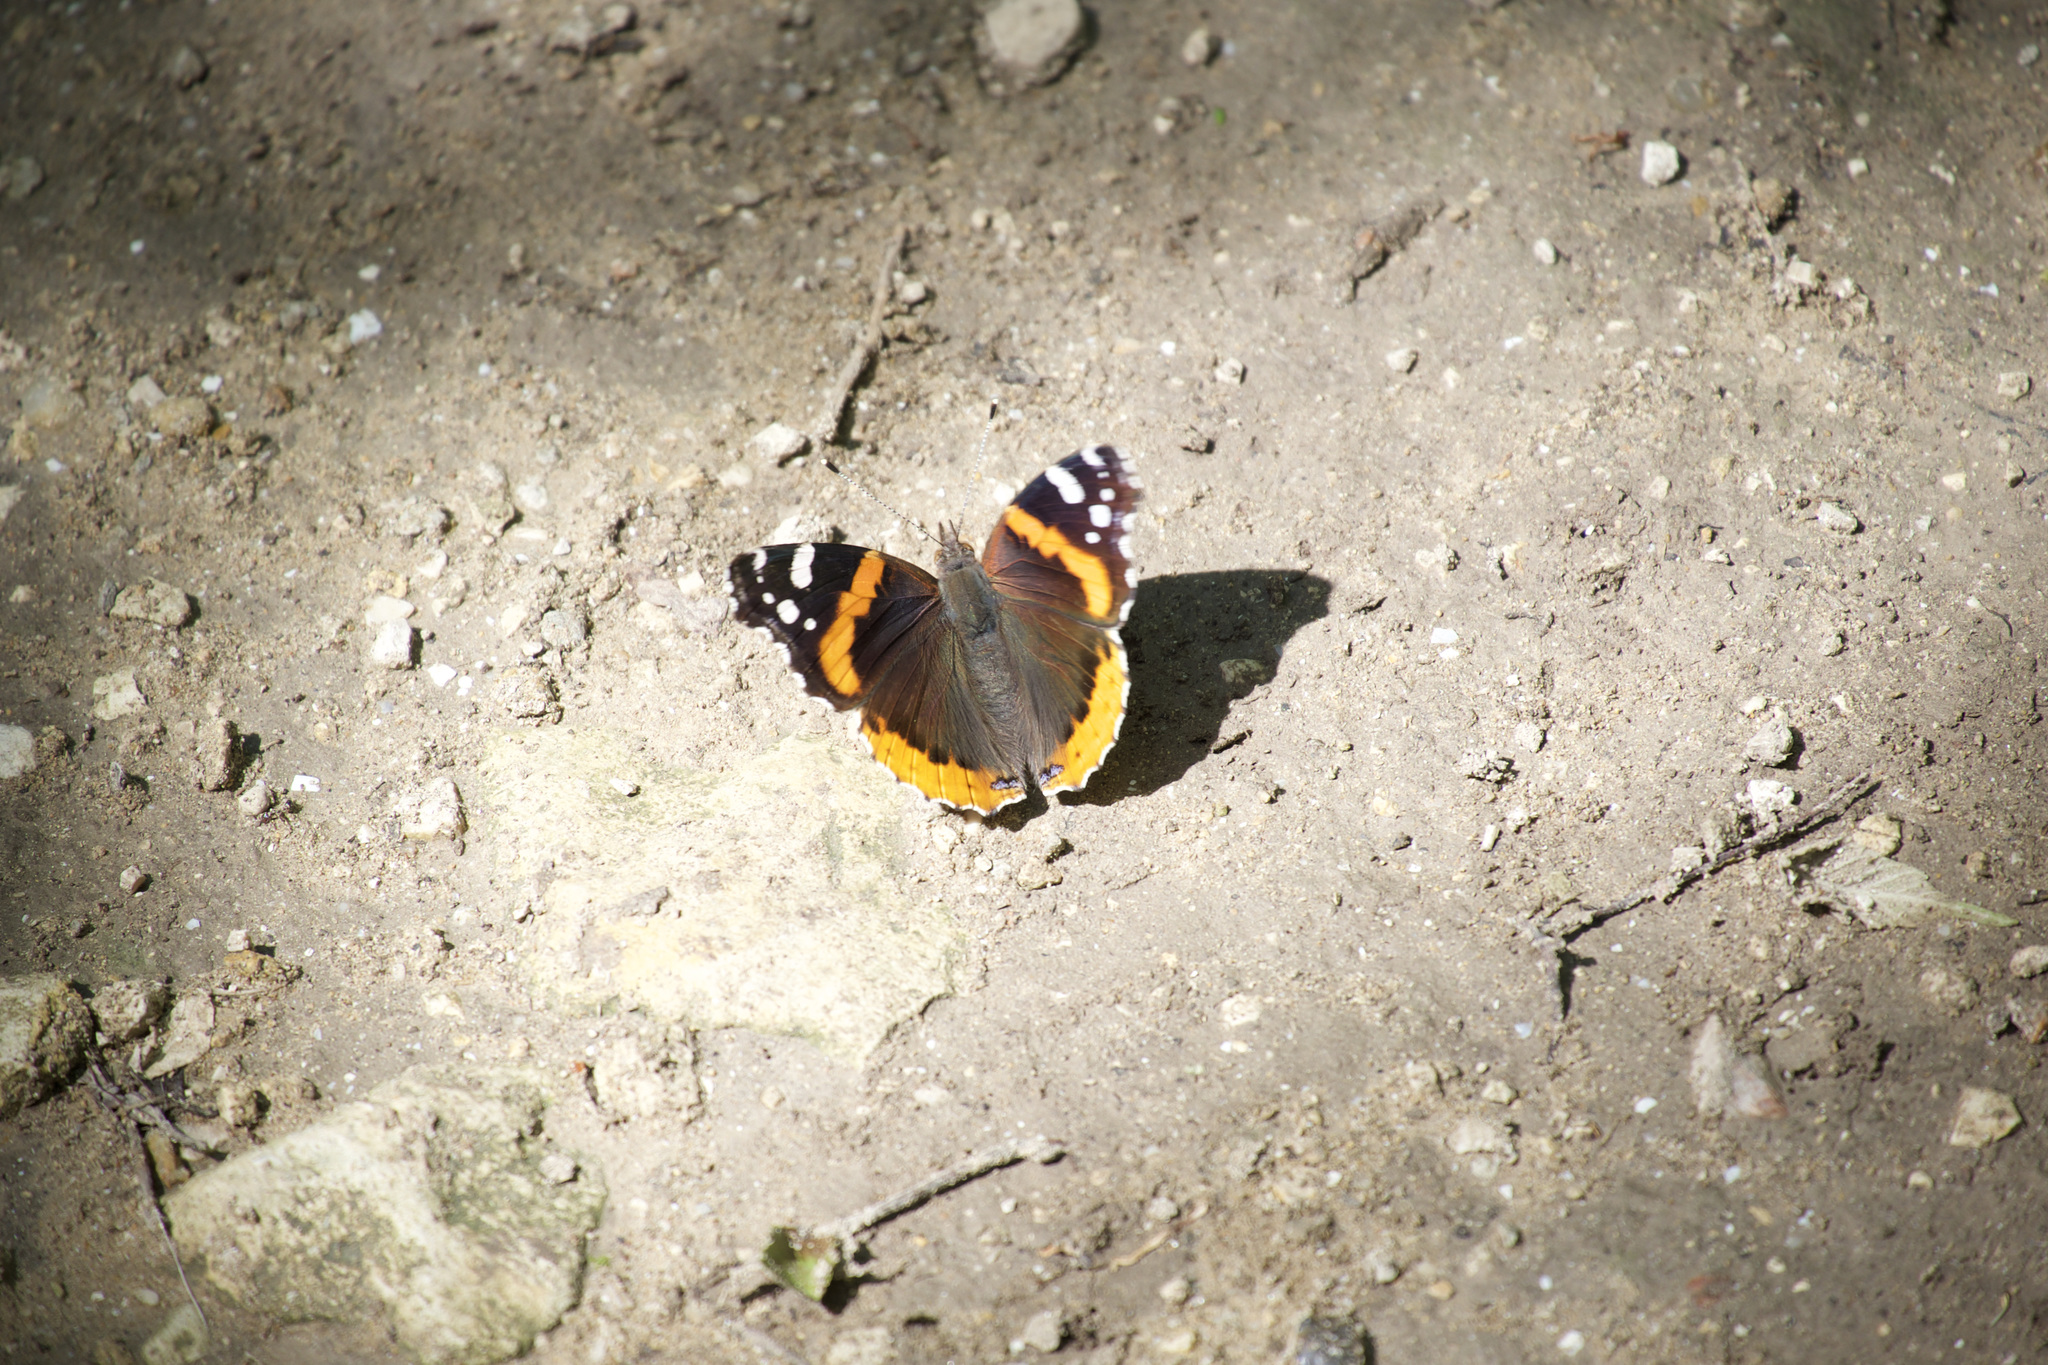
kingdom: Animalia
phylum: Arthropoda
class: Insecta
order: Lepidoptera
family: Nymphalidae
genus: Vanessa
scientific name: Vanessa atalanta
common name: Red admiral
